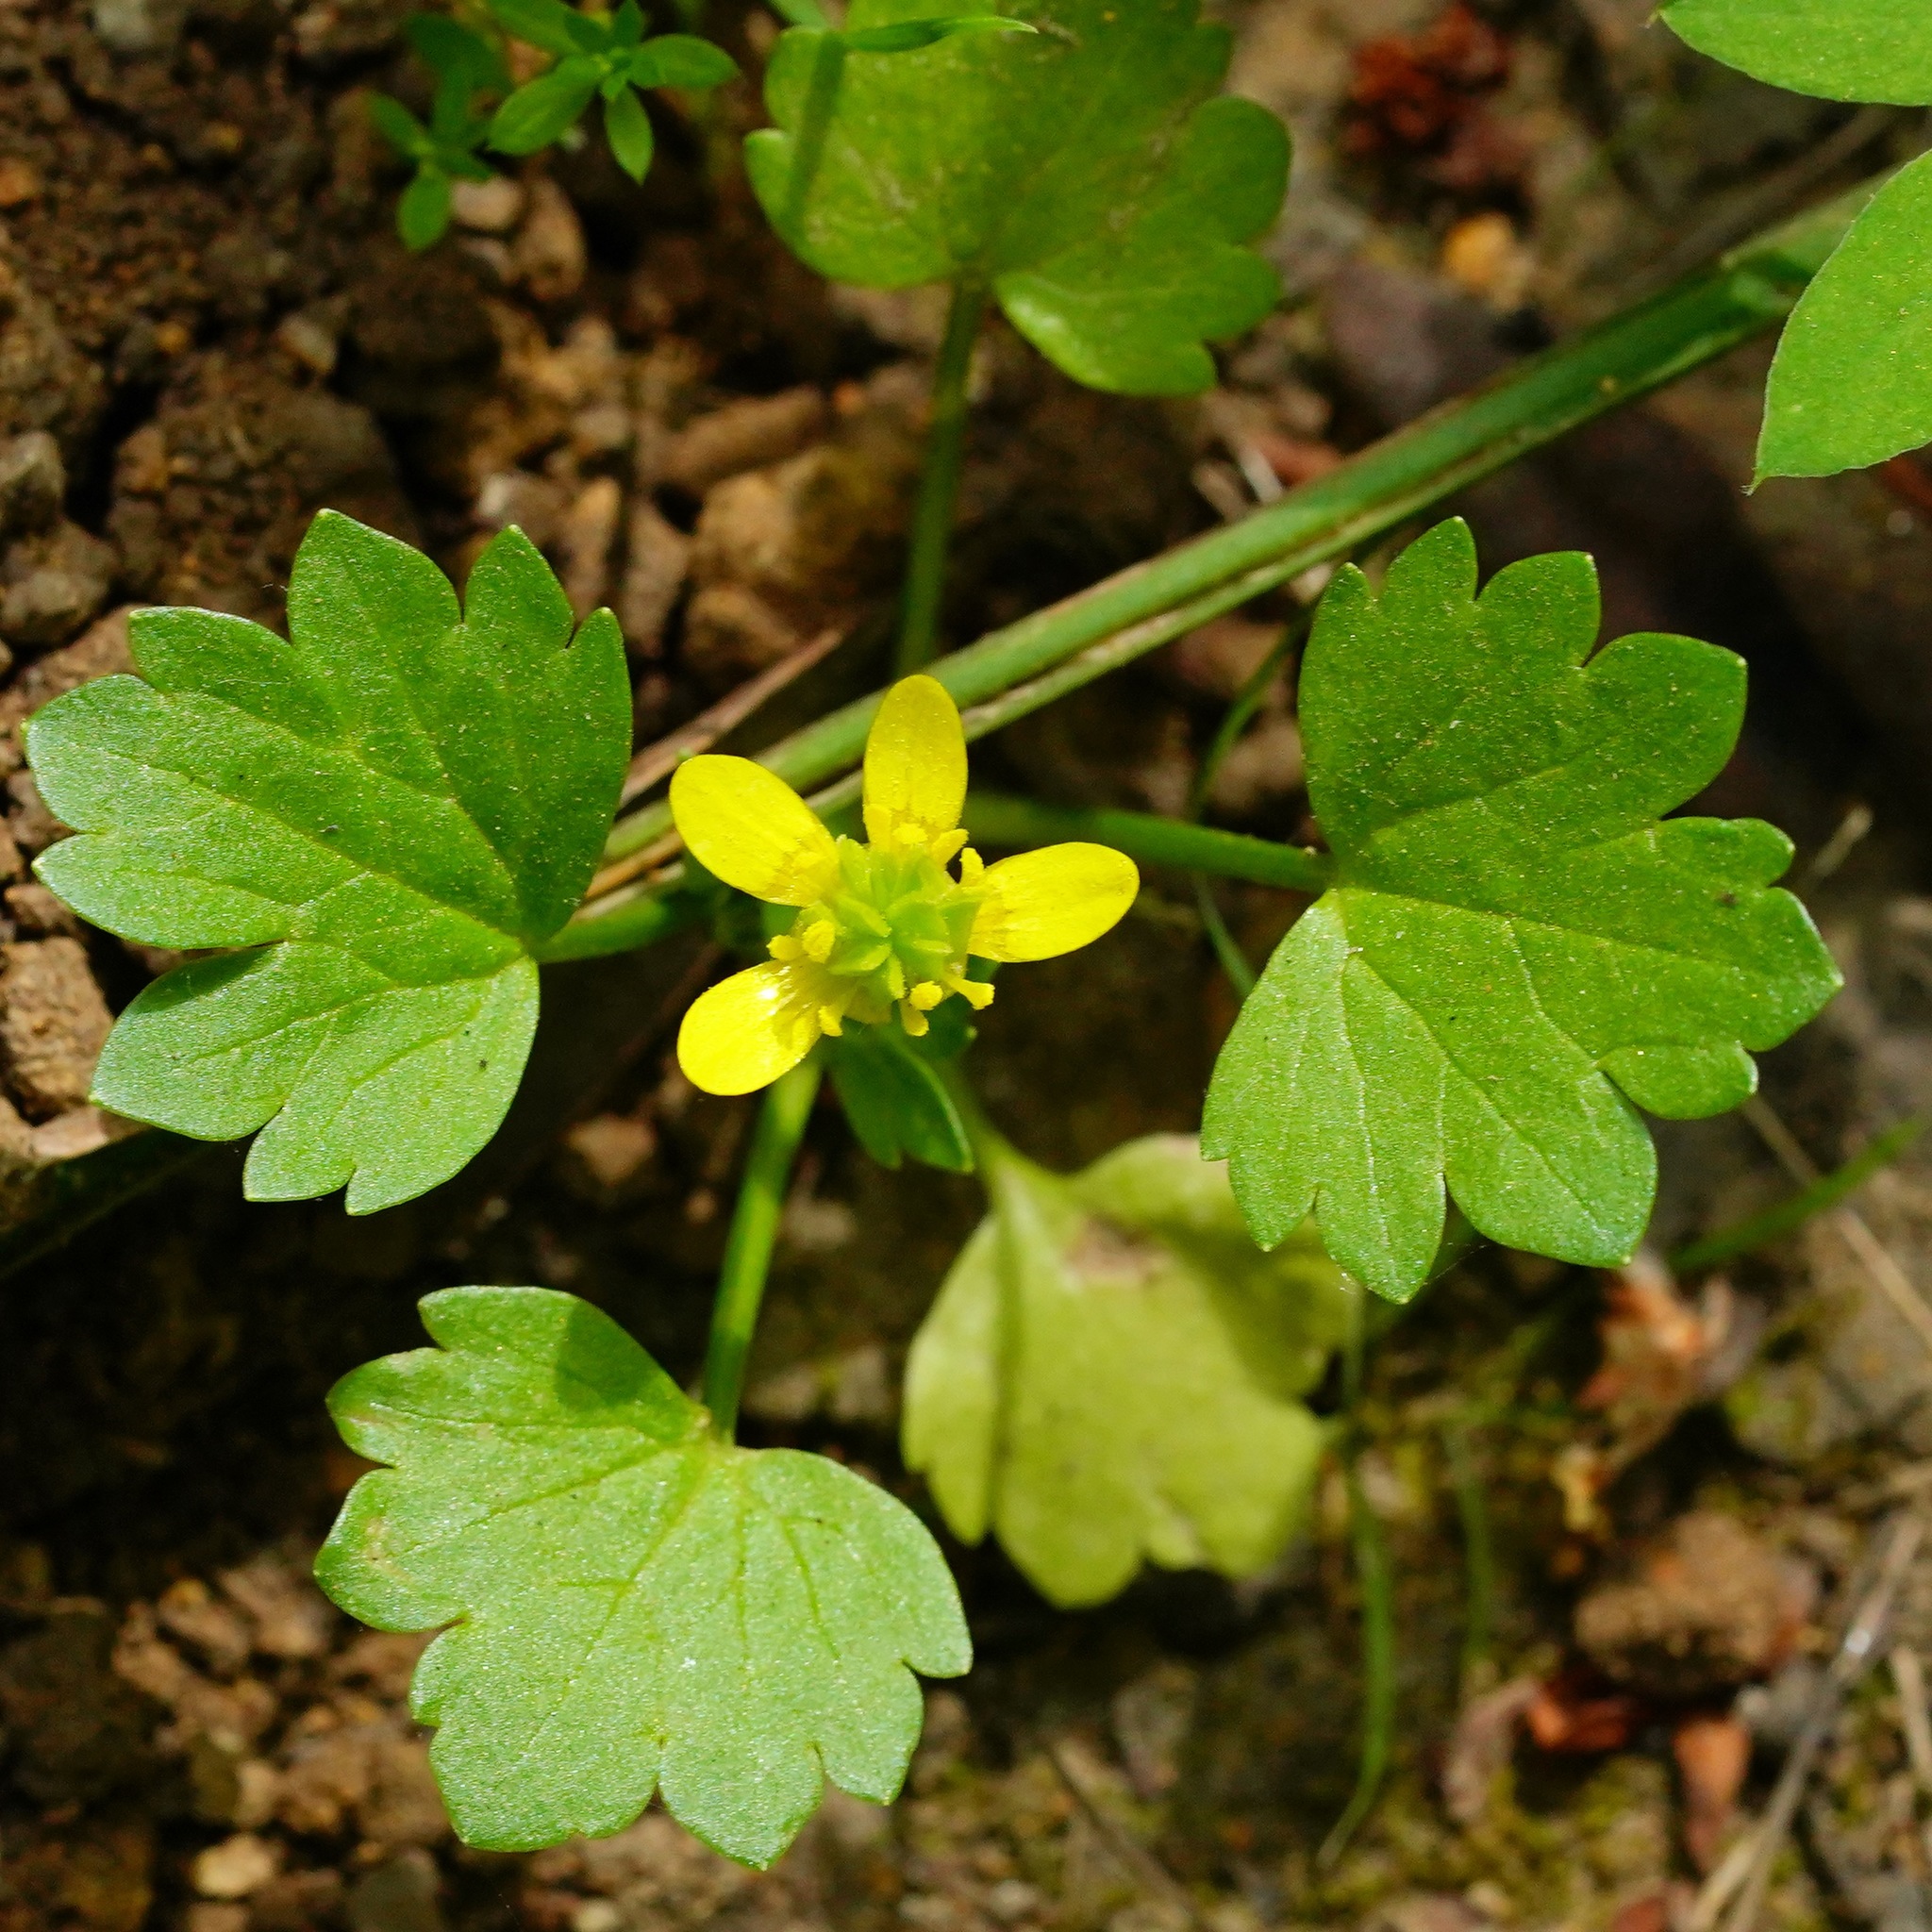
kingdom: Plantae
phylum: Tracheophyta
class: Magnoliopsida
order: Ranunculales
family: Ranunculaceae
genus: Ranunculus
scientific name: Ranunculus muricatus
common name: Rough-fruited buttercup
